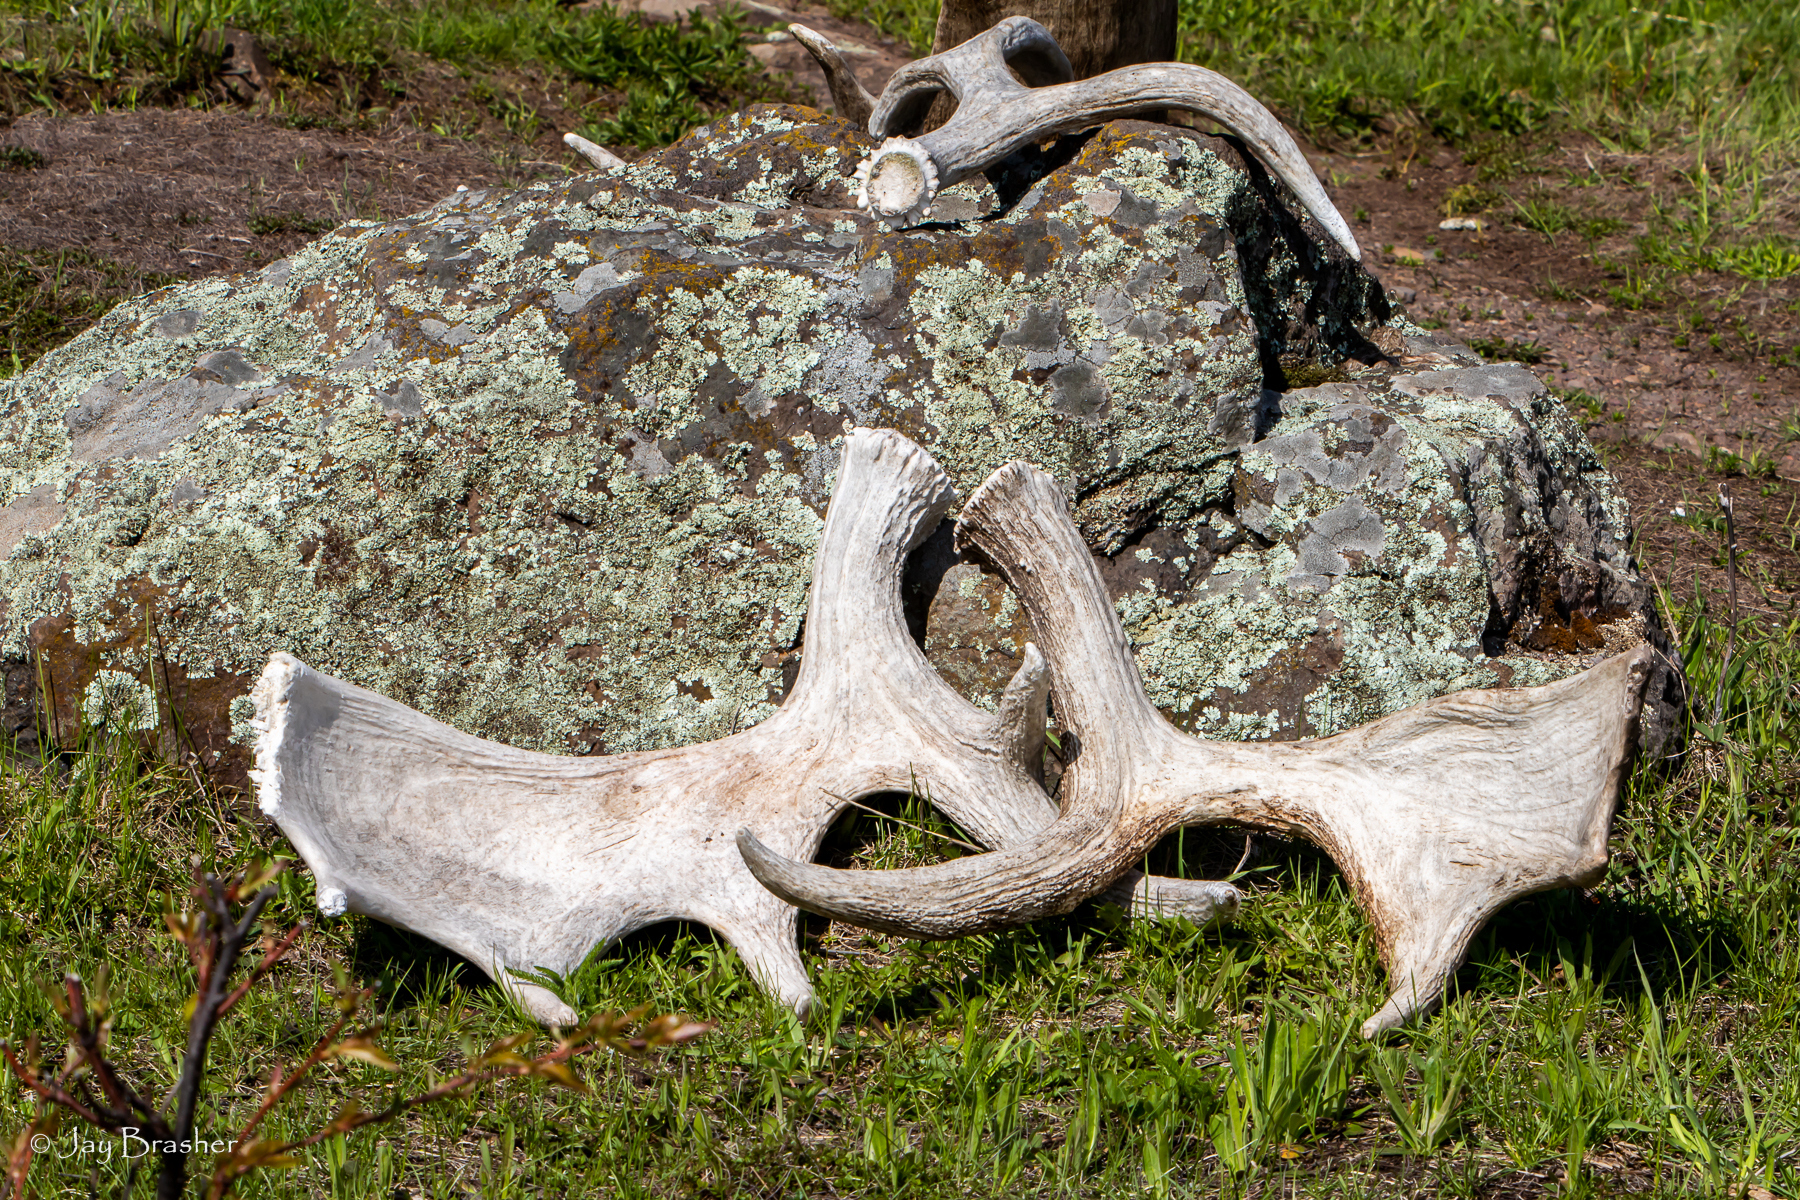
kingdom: Animalia
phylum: Chordata
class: Mammalia
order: Artiodactyla
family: Cervidae
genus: Alces
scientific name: Alces americanus
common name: Moose
